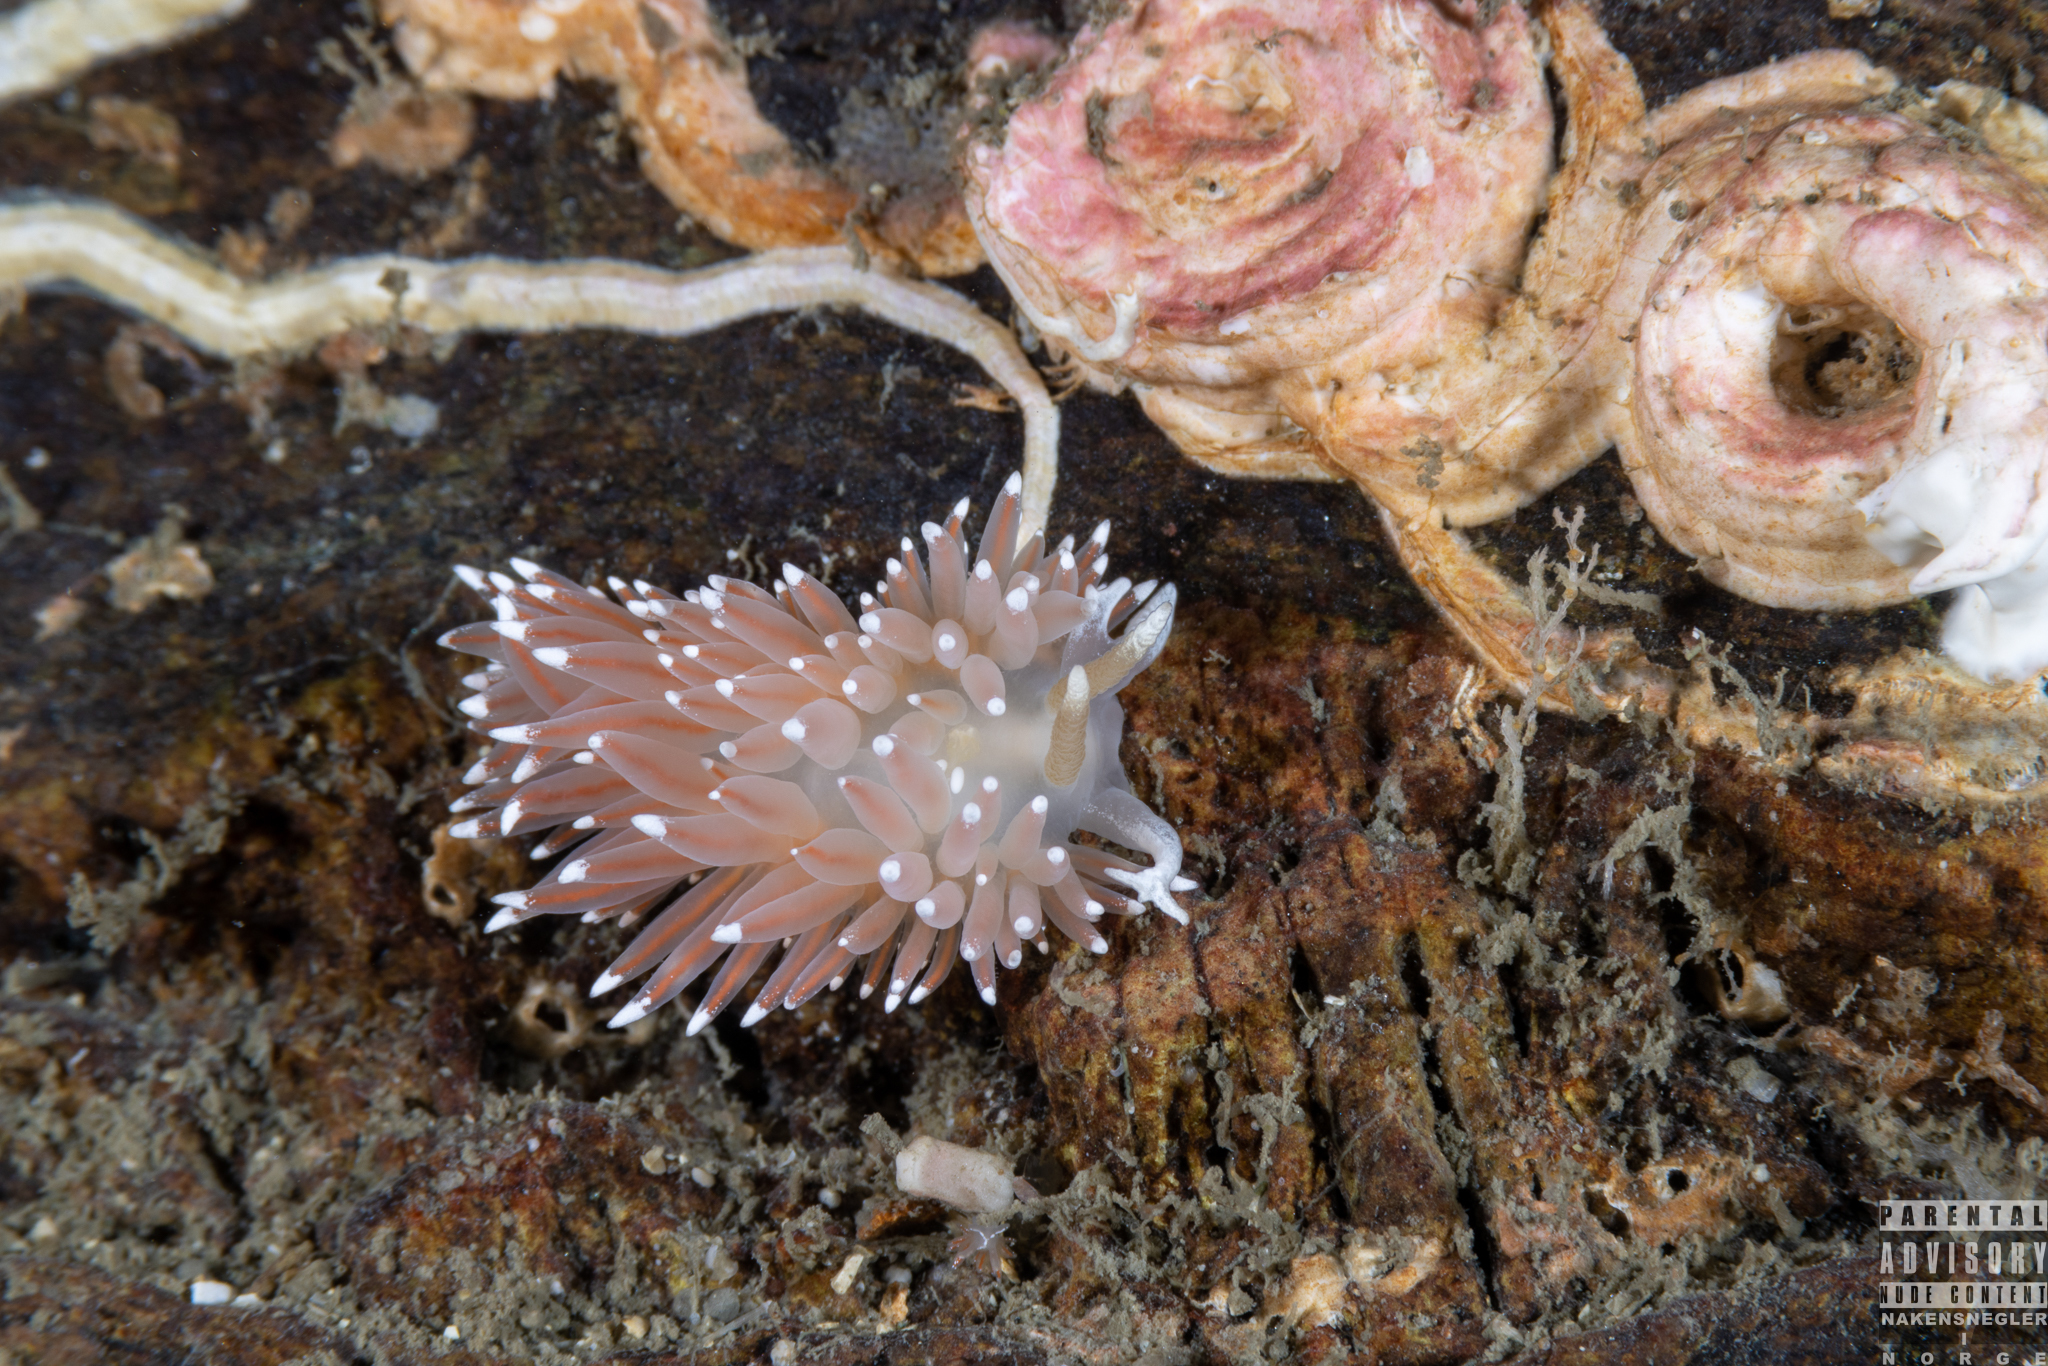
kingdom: Animalia
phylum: Mollusca
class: Gastropoda
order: Nudibranchia
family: Coryphellidae
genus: Coryphella
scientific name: Coryphella nobilis
